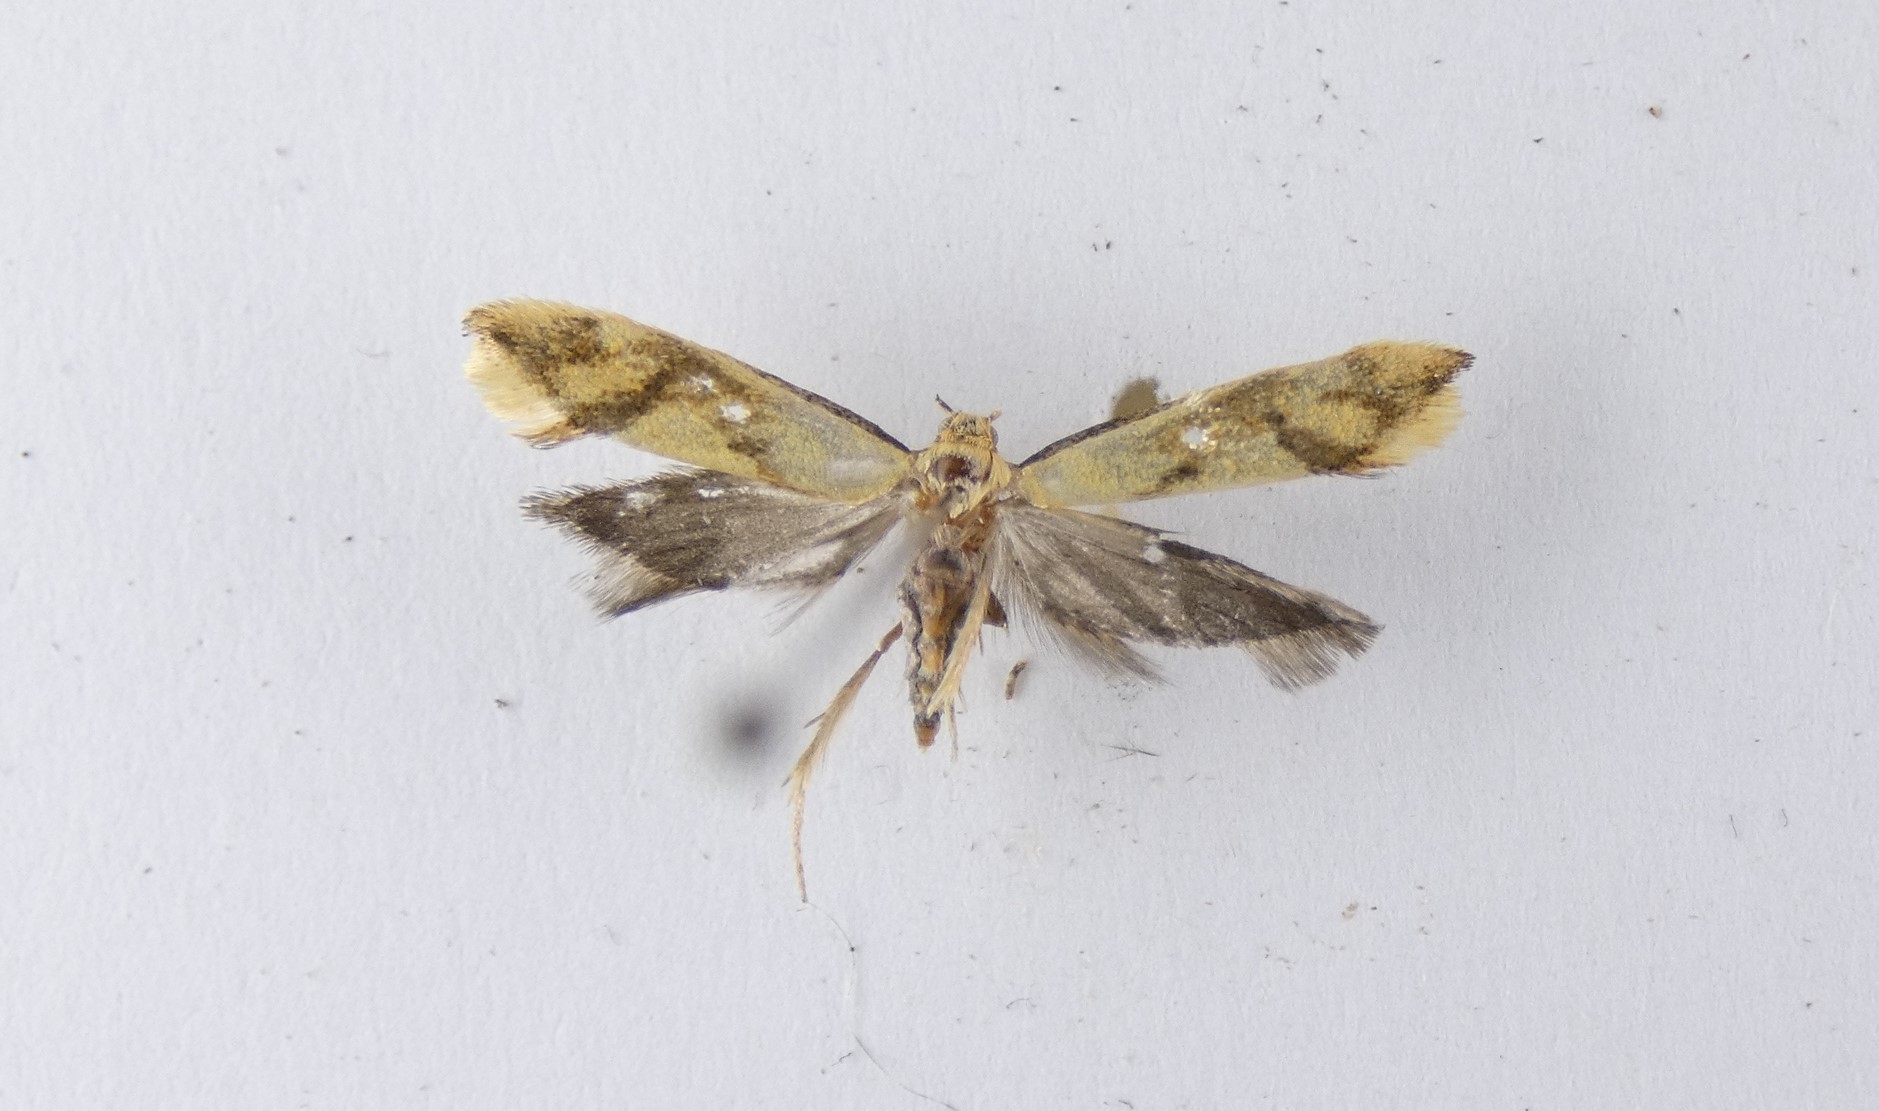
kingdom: Animalia
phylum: Arthropoda
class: Insecta
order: Lepidoptera
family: Oecophoridae
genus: Tingena
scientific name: Tingena actinias
